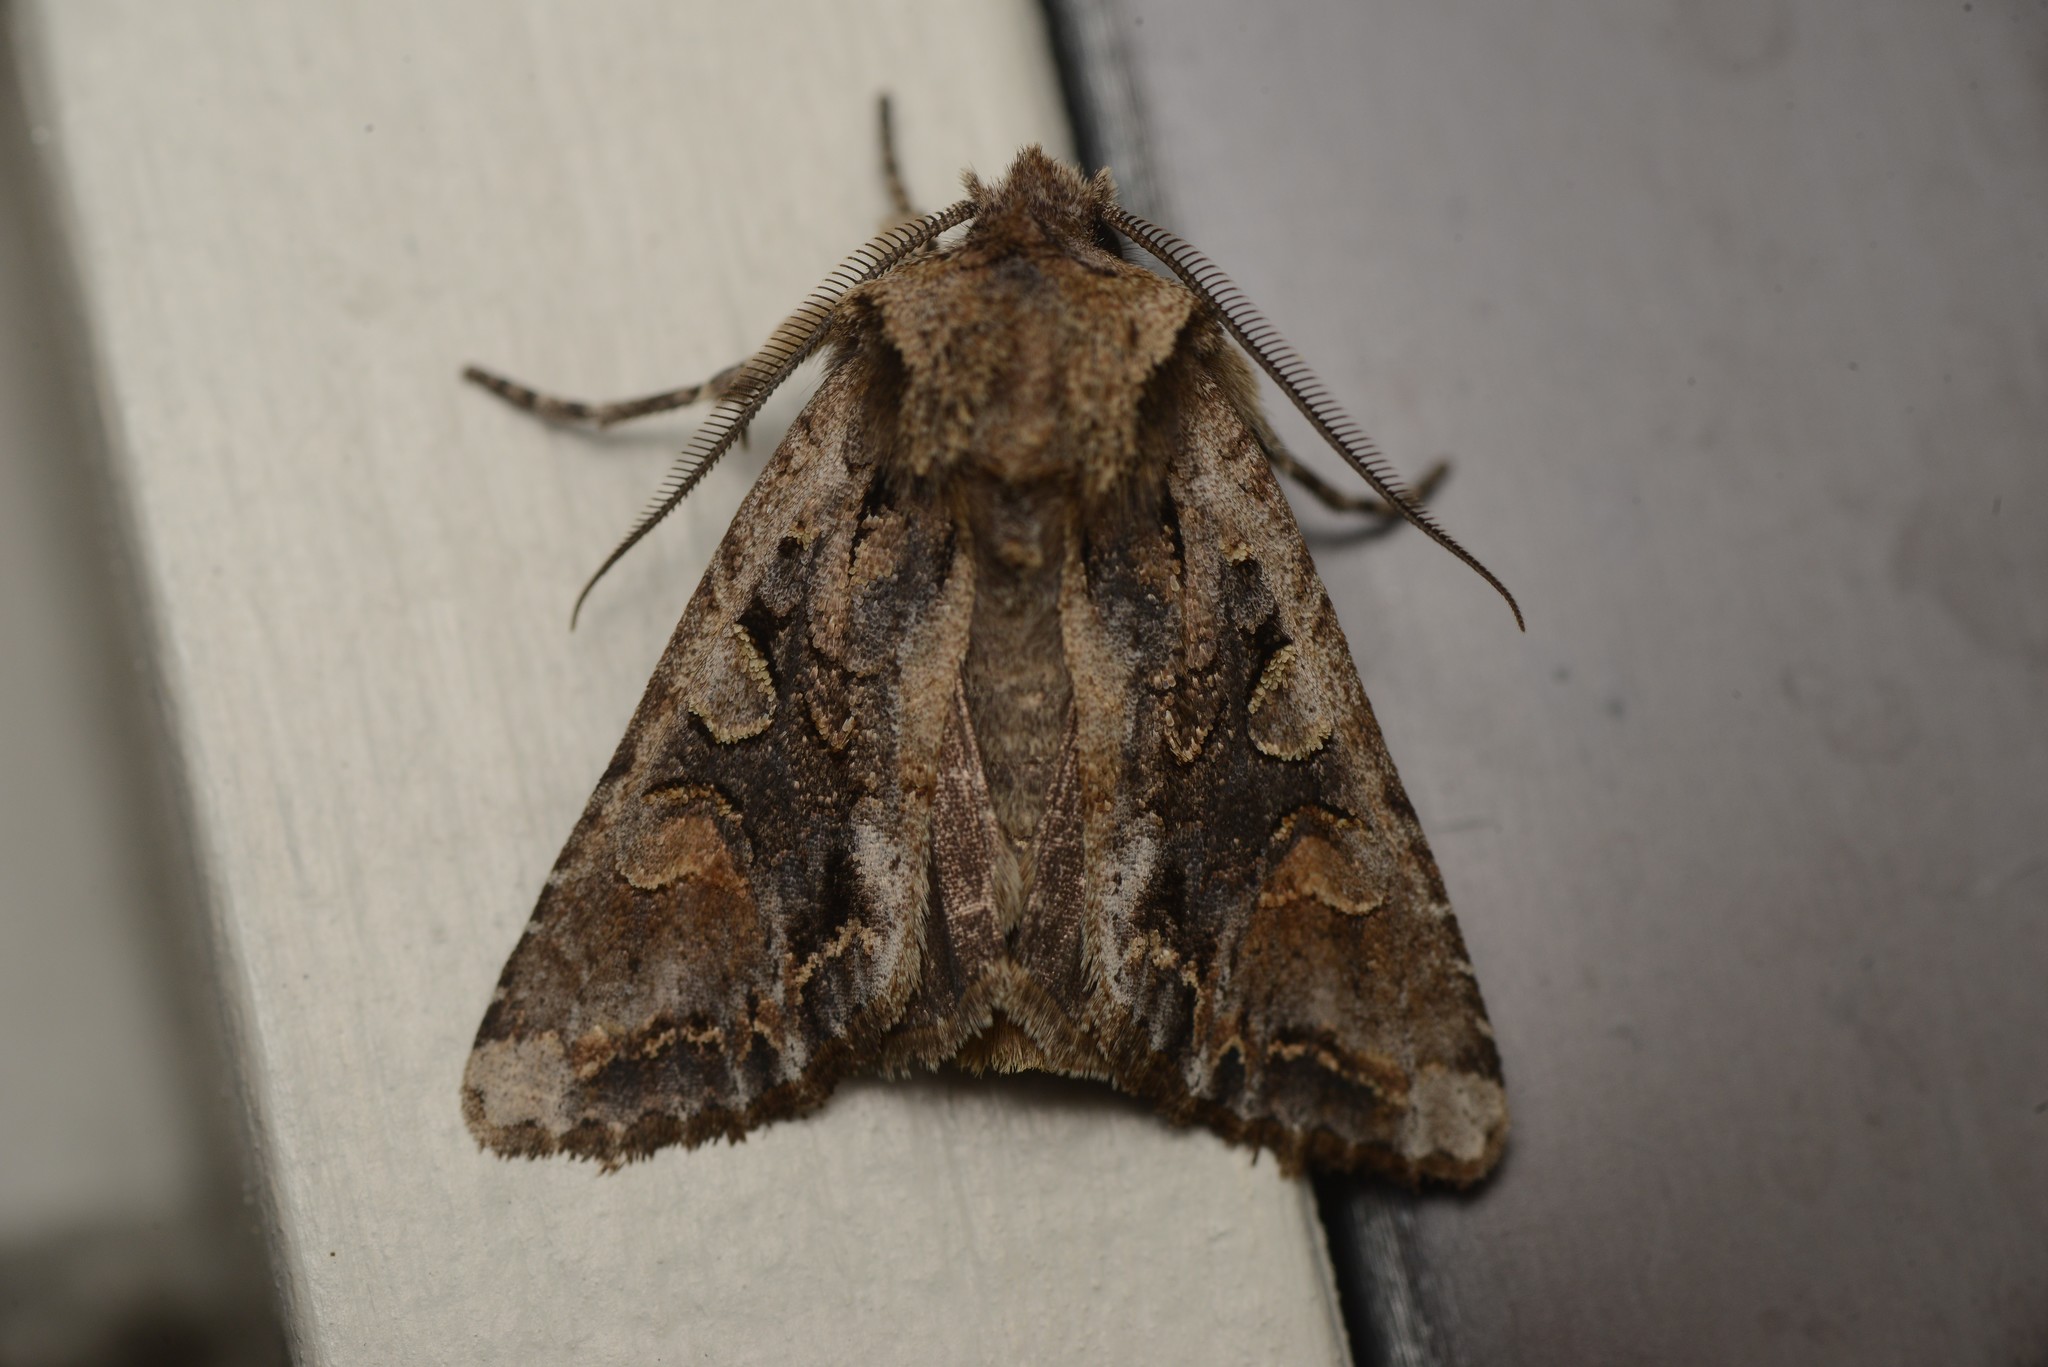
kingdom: Animalia
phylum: Arthropoda
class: Insecta
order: Lepidoptera
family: Noctuidae
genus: Ichneutica
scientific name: Ichneutica
